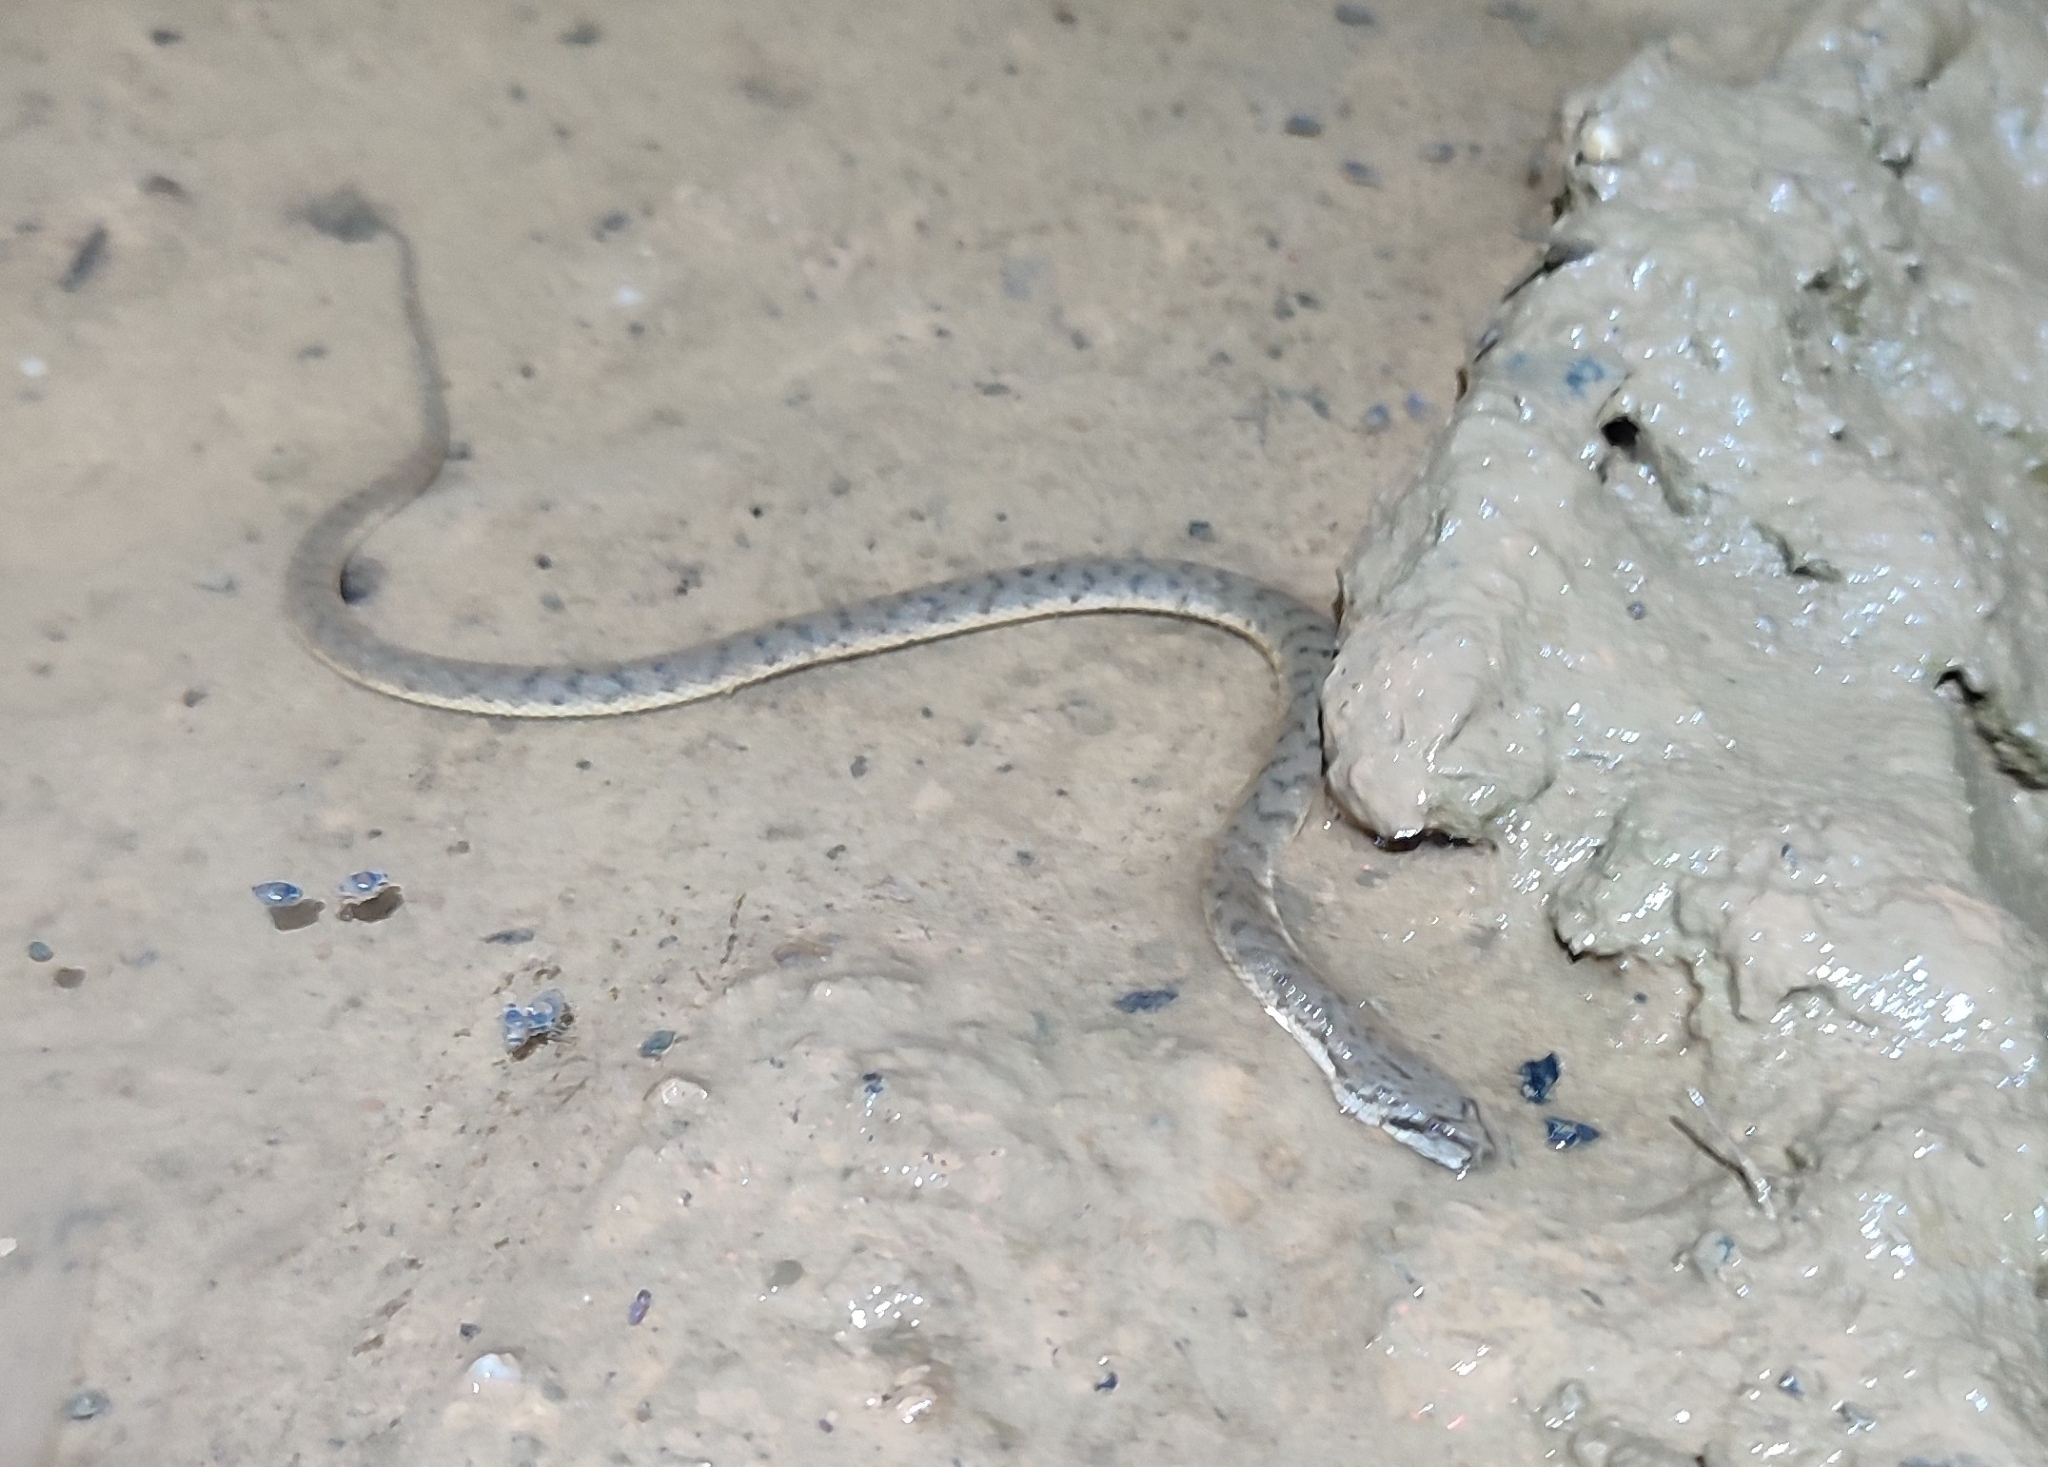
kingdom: Animalia
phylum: Chordata
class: Squamata
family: Homalopsidae
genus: Cerberus
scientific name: Cerberus schneiderii
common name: Southeast asian bockadam
